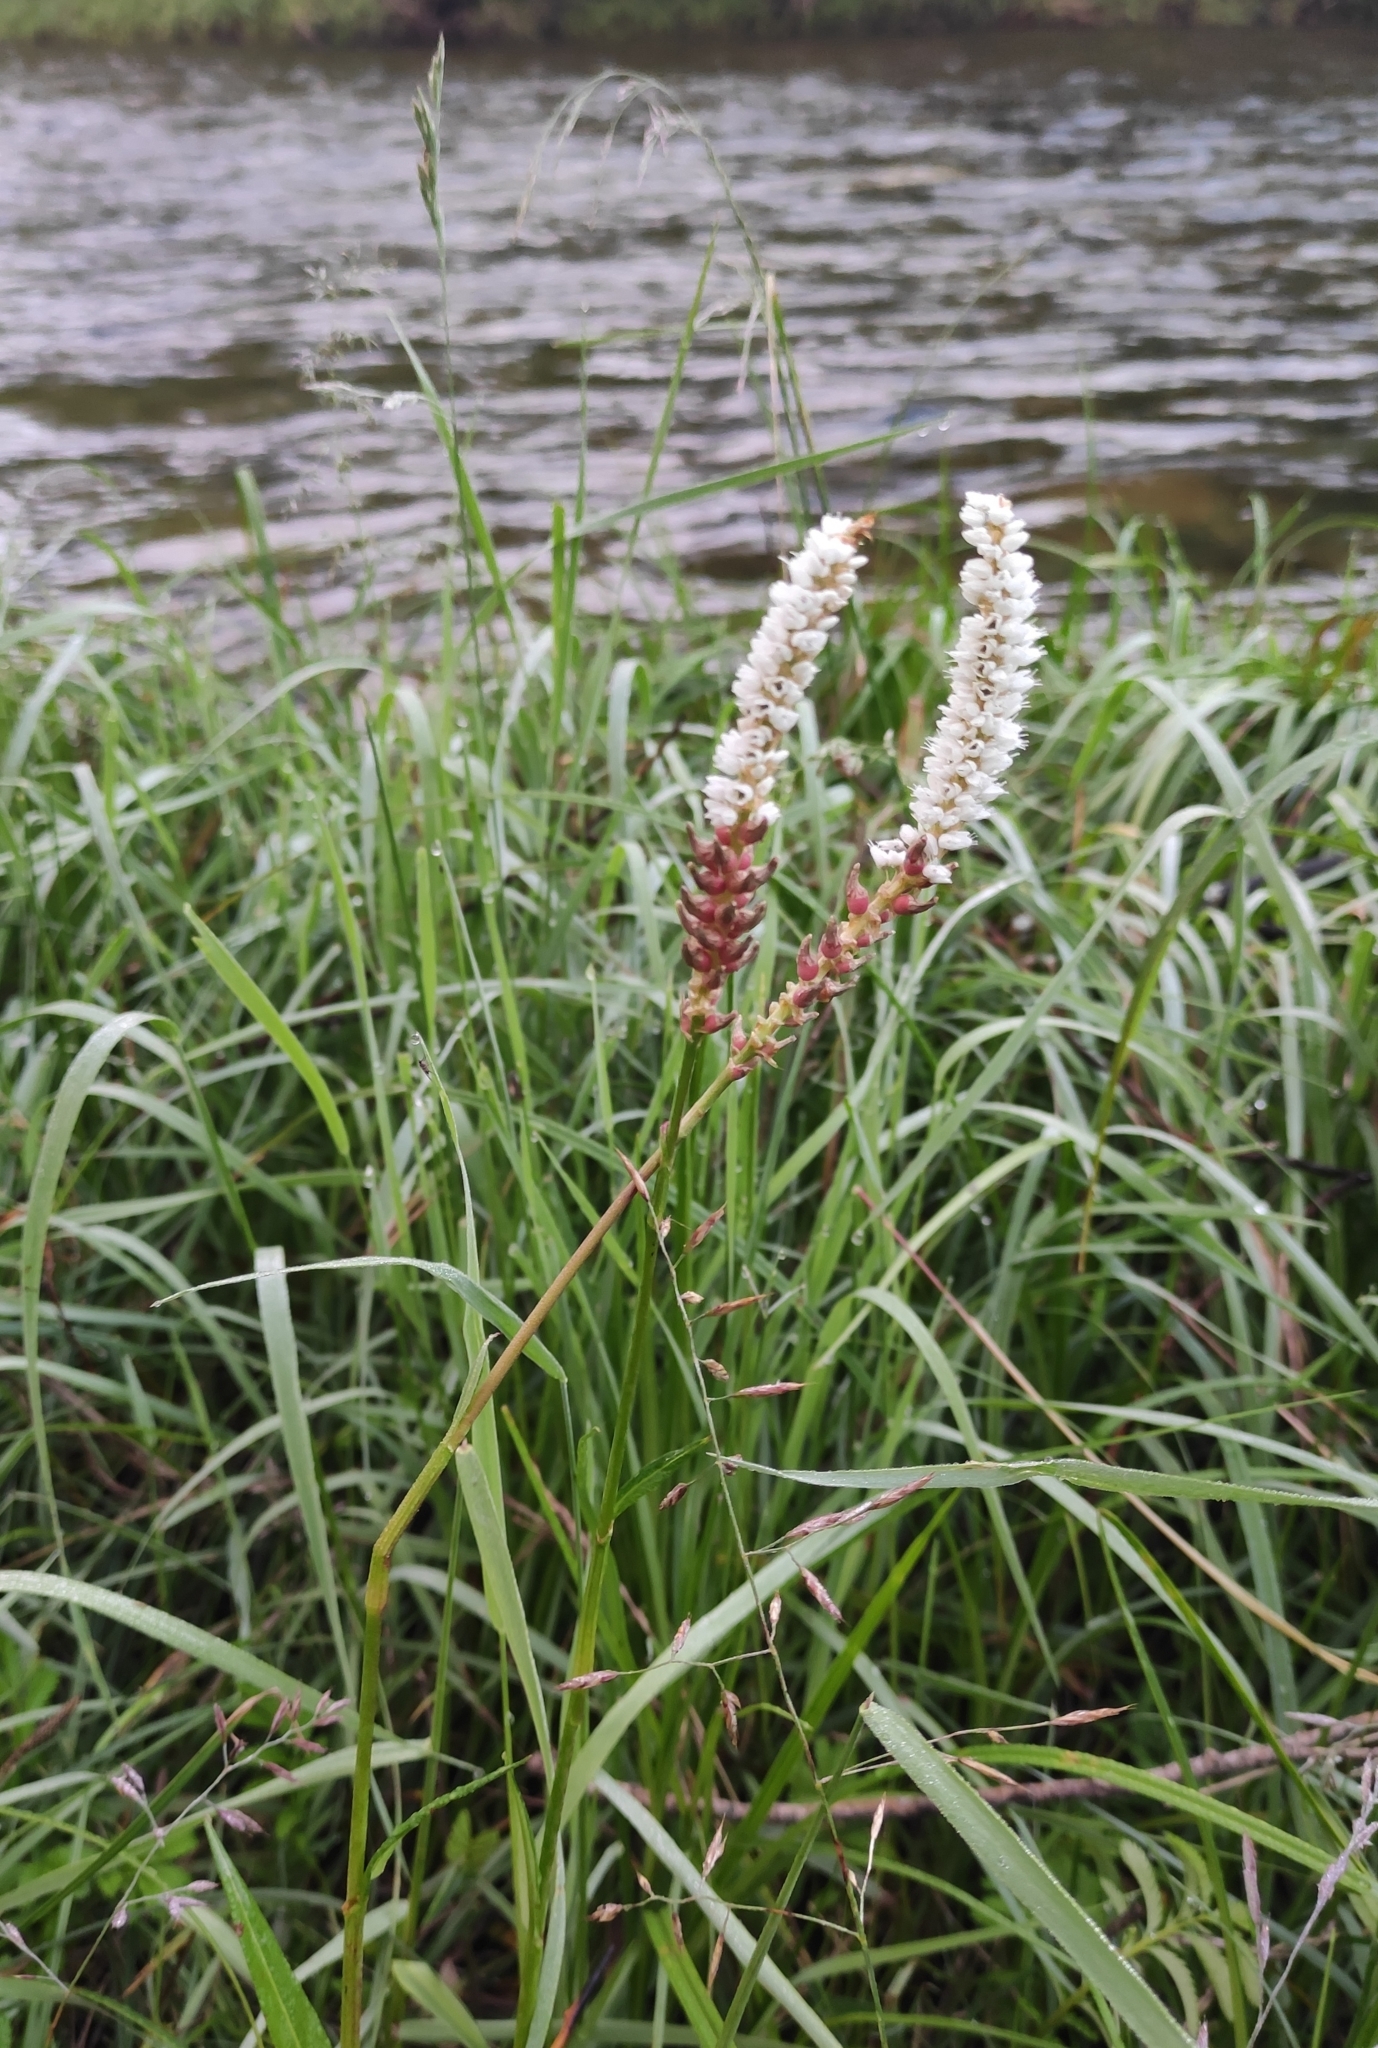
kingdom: Plantae
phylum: Tracheophyta
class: Magnoliopsida
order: Caryophyllales
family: Polygonaceae
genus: Bistorta
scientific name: Bistorta vivipara
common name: Alpine bistort
